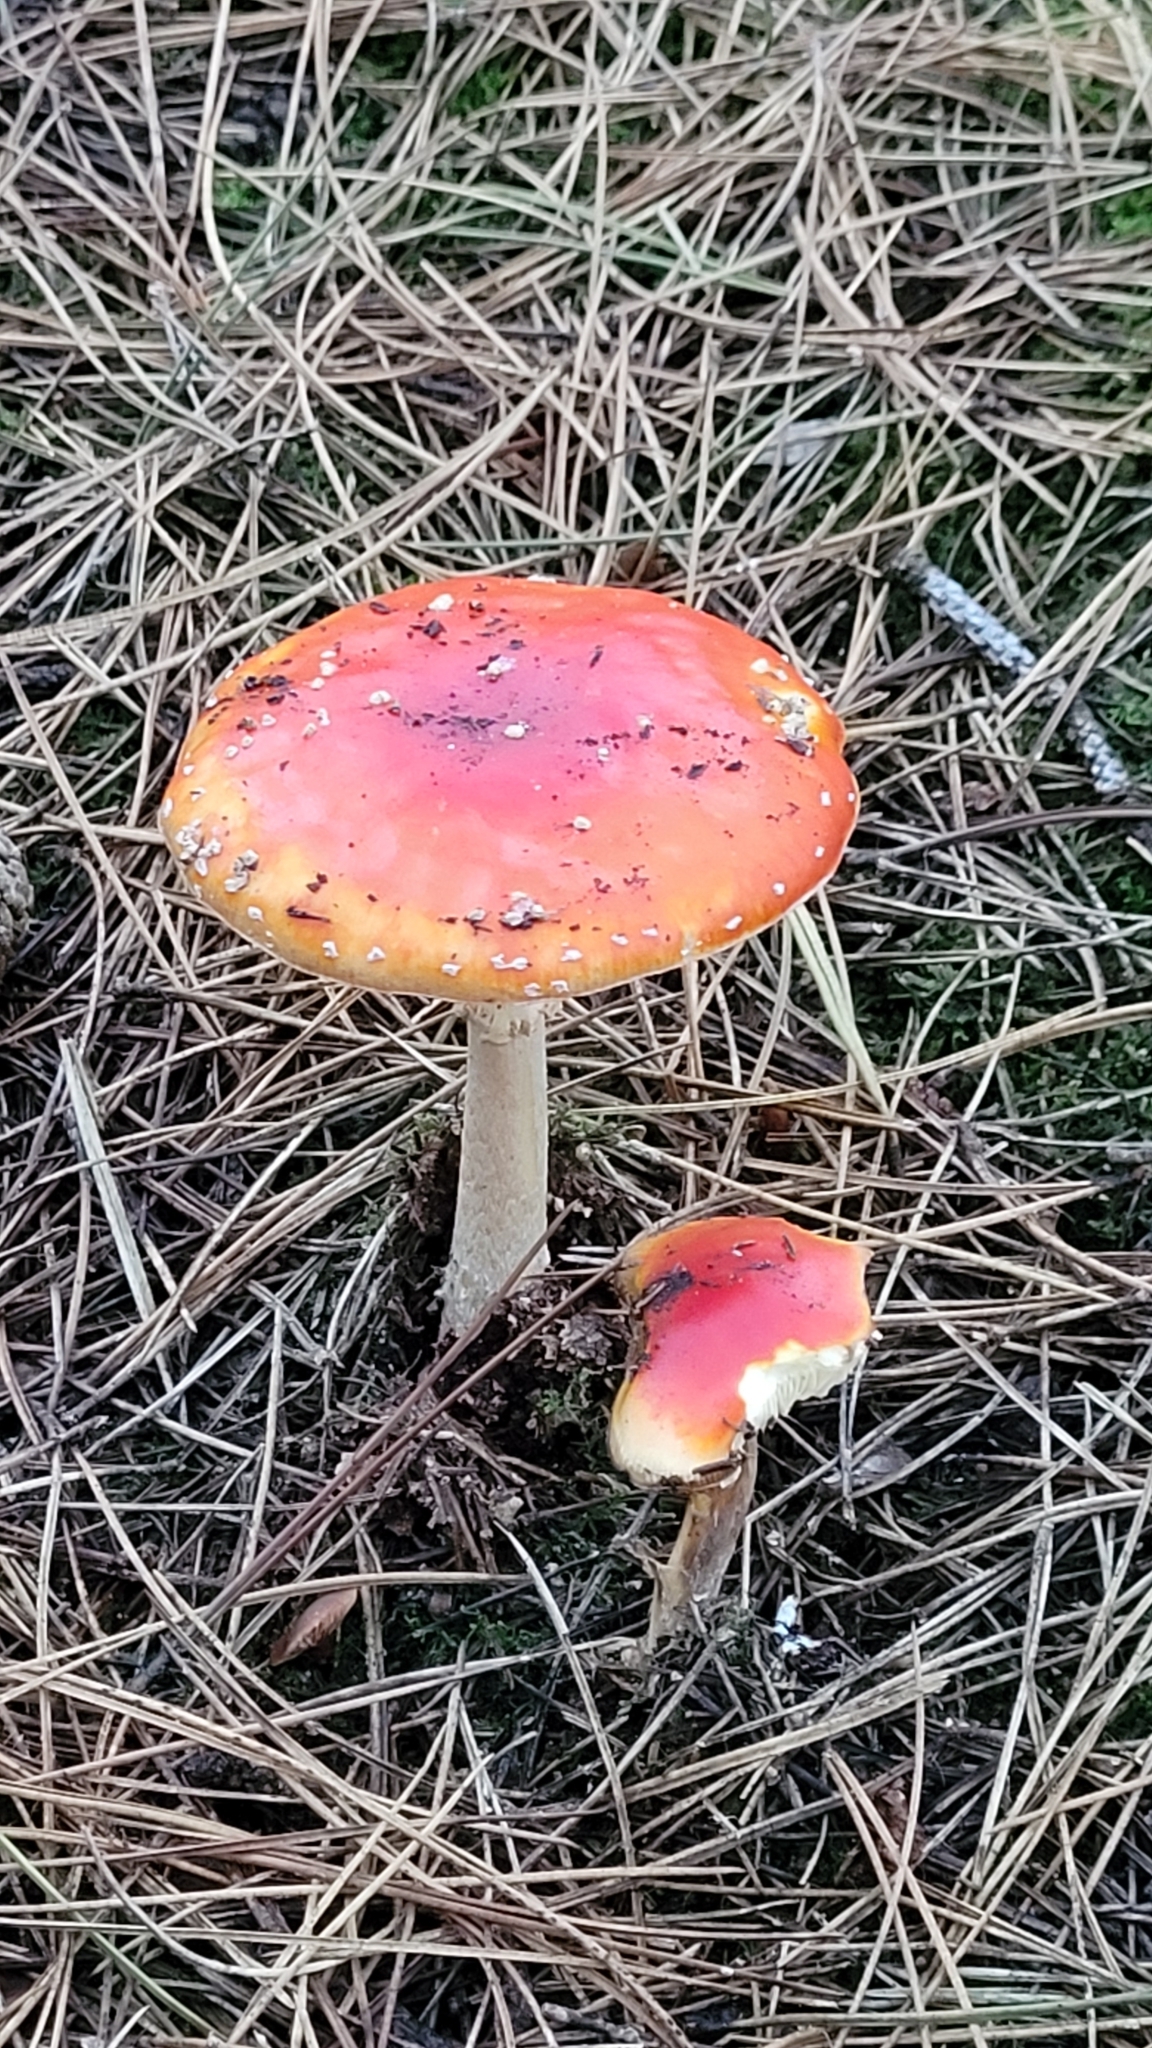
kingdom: Fungi
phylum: Basidiomycota
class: Agaricomycetes
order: Agaricales
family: Amanitaceae
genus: Amanita
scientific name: Amanita muscaria
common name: Fly agaric
